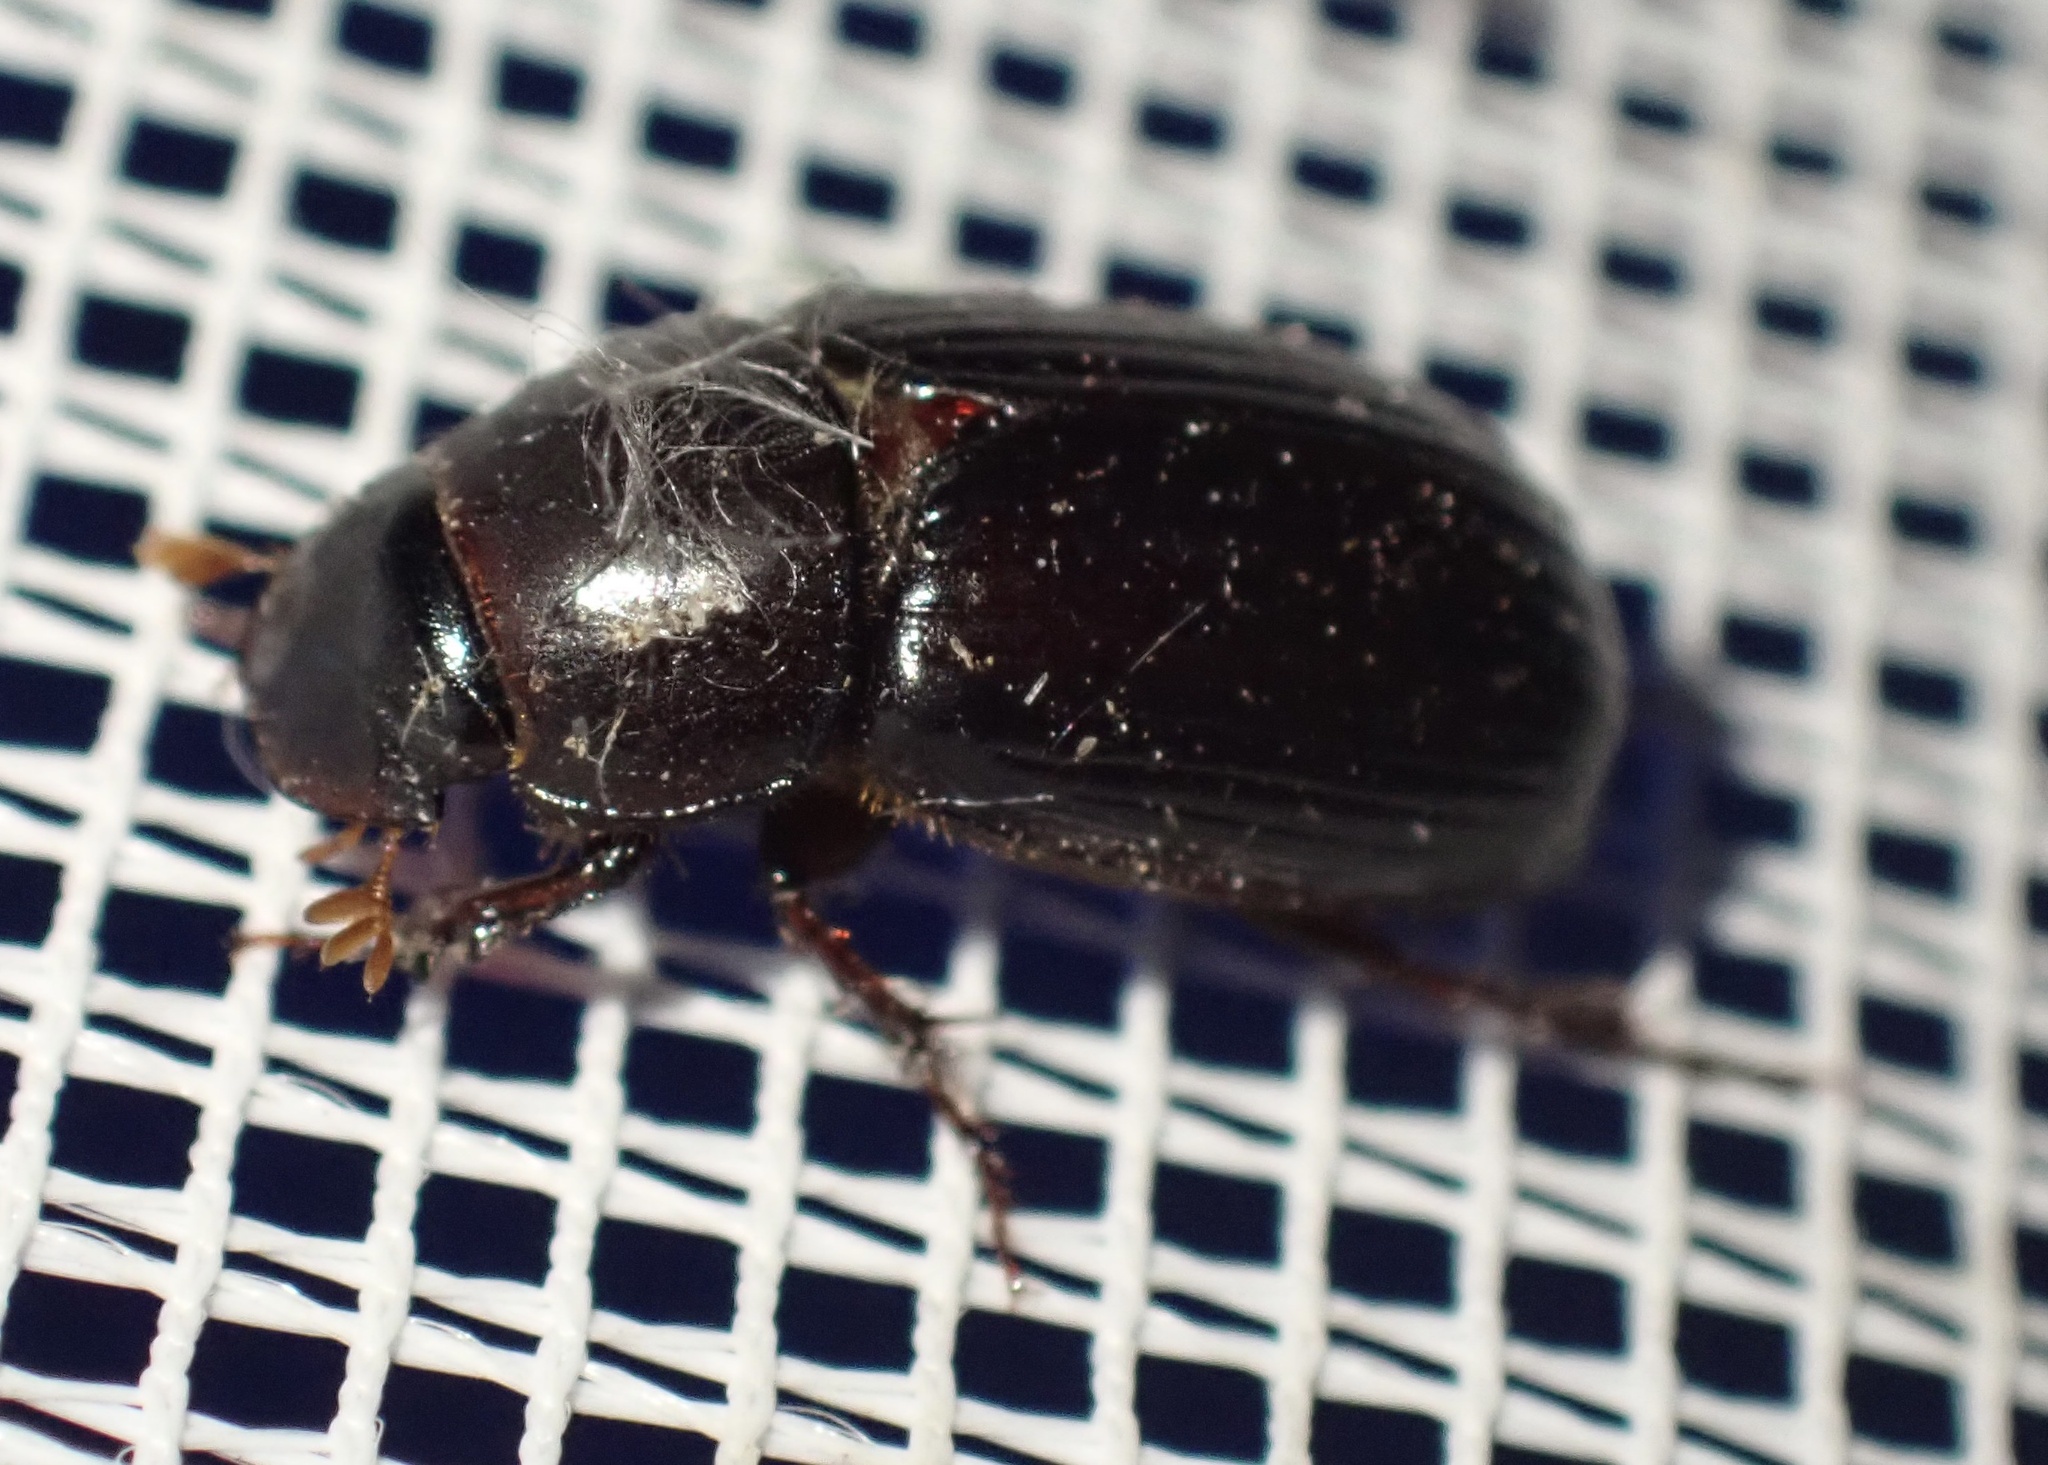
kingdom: Animalia
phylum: Arthropoda
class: Insecta
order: Coleoptera
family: Scarabaeidae
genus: Acrossus
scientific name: Acrossus rufipes
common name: Night-flying dung beetle
